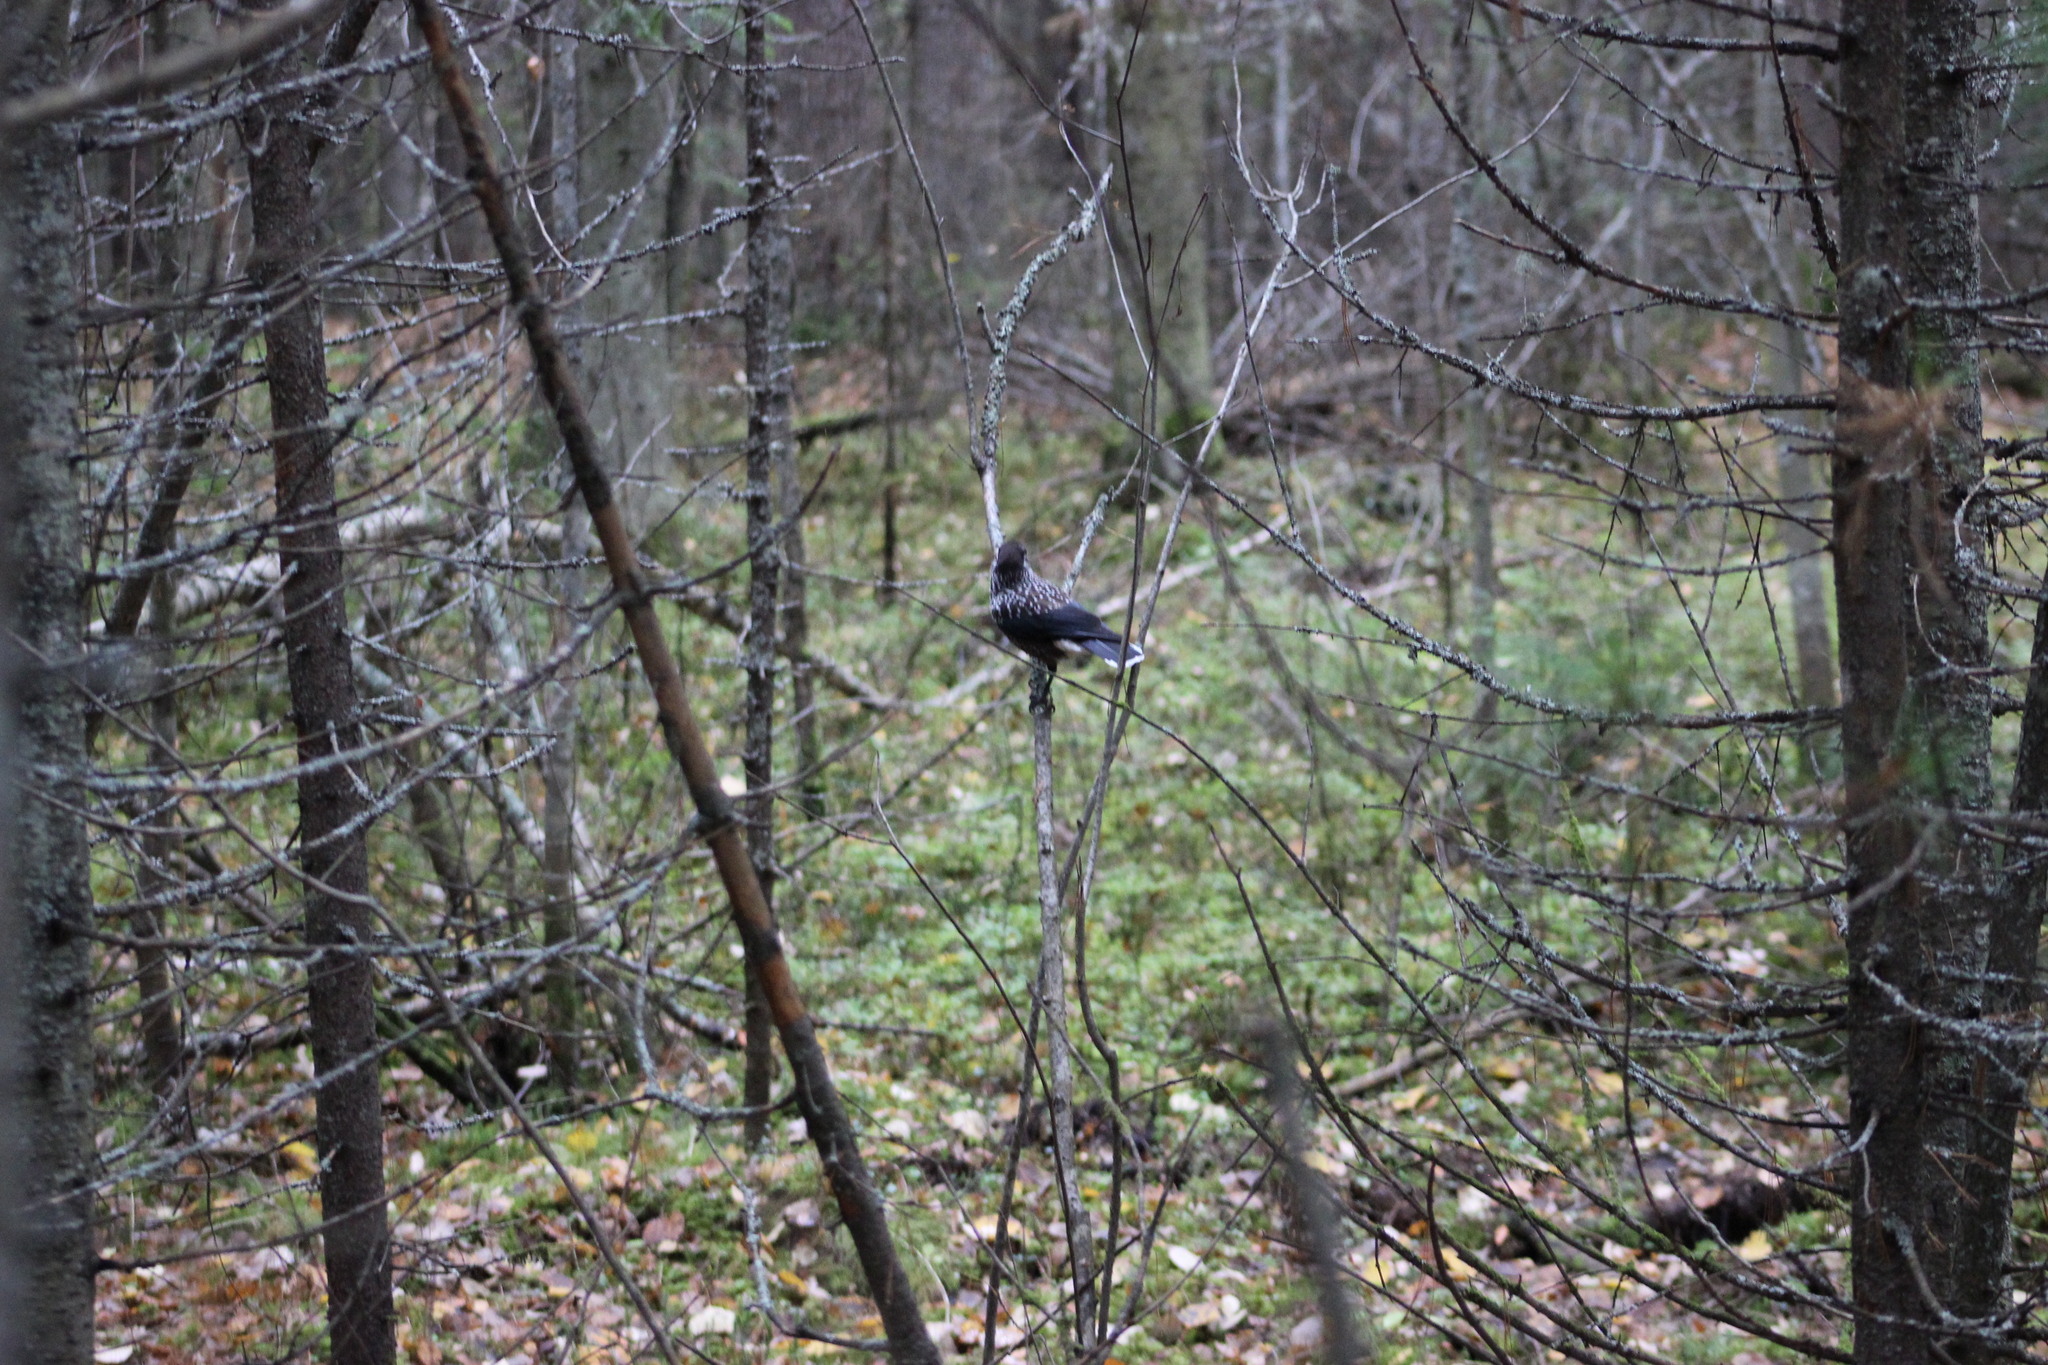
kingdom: Animalia
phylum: Chordata
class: Aves
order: Passeriformes
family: Corvidae
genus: Nucifraga
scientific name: Nucifraga caryocatactes
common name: Spotted nutcracker
